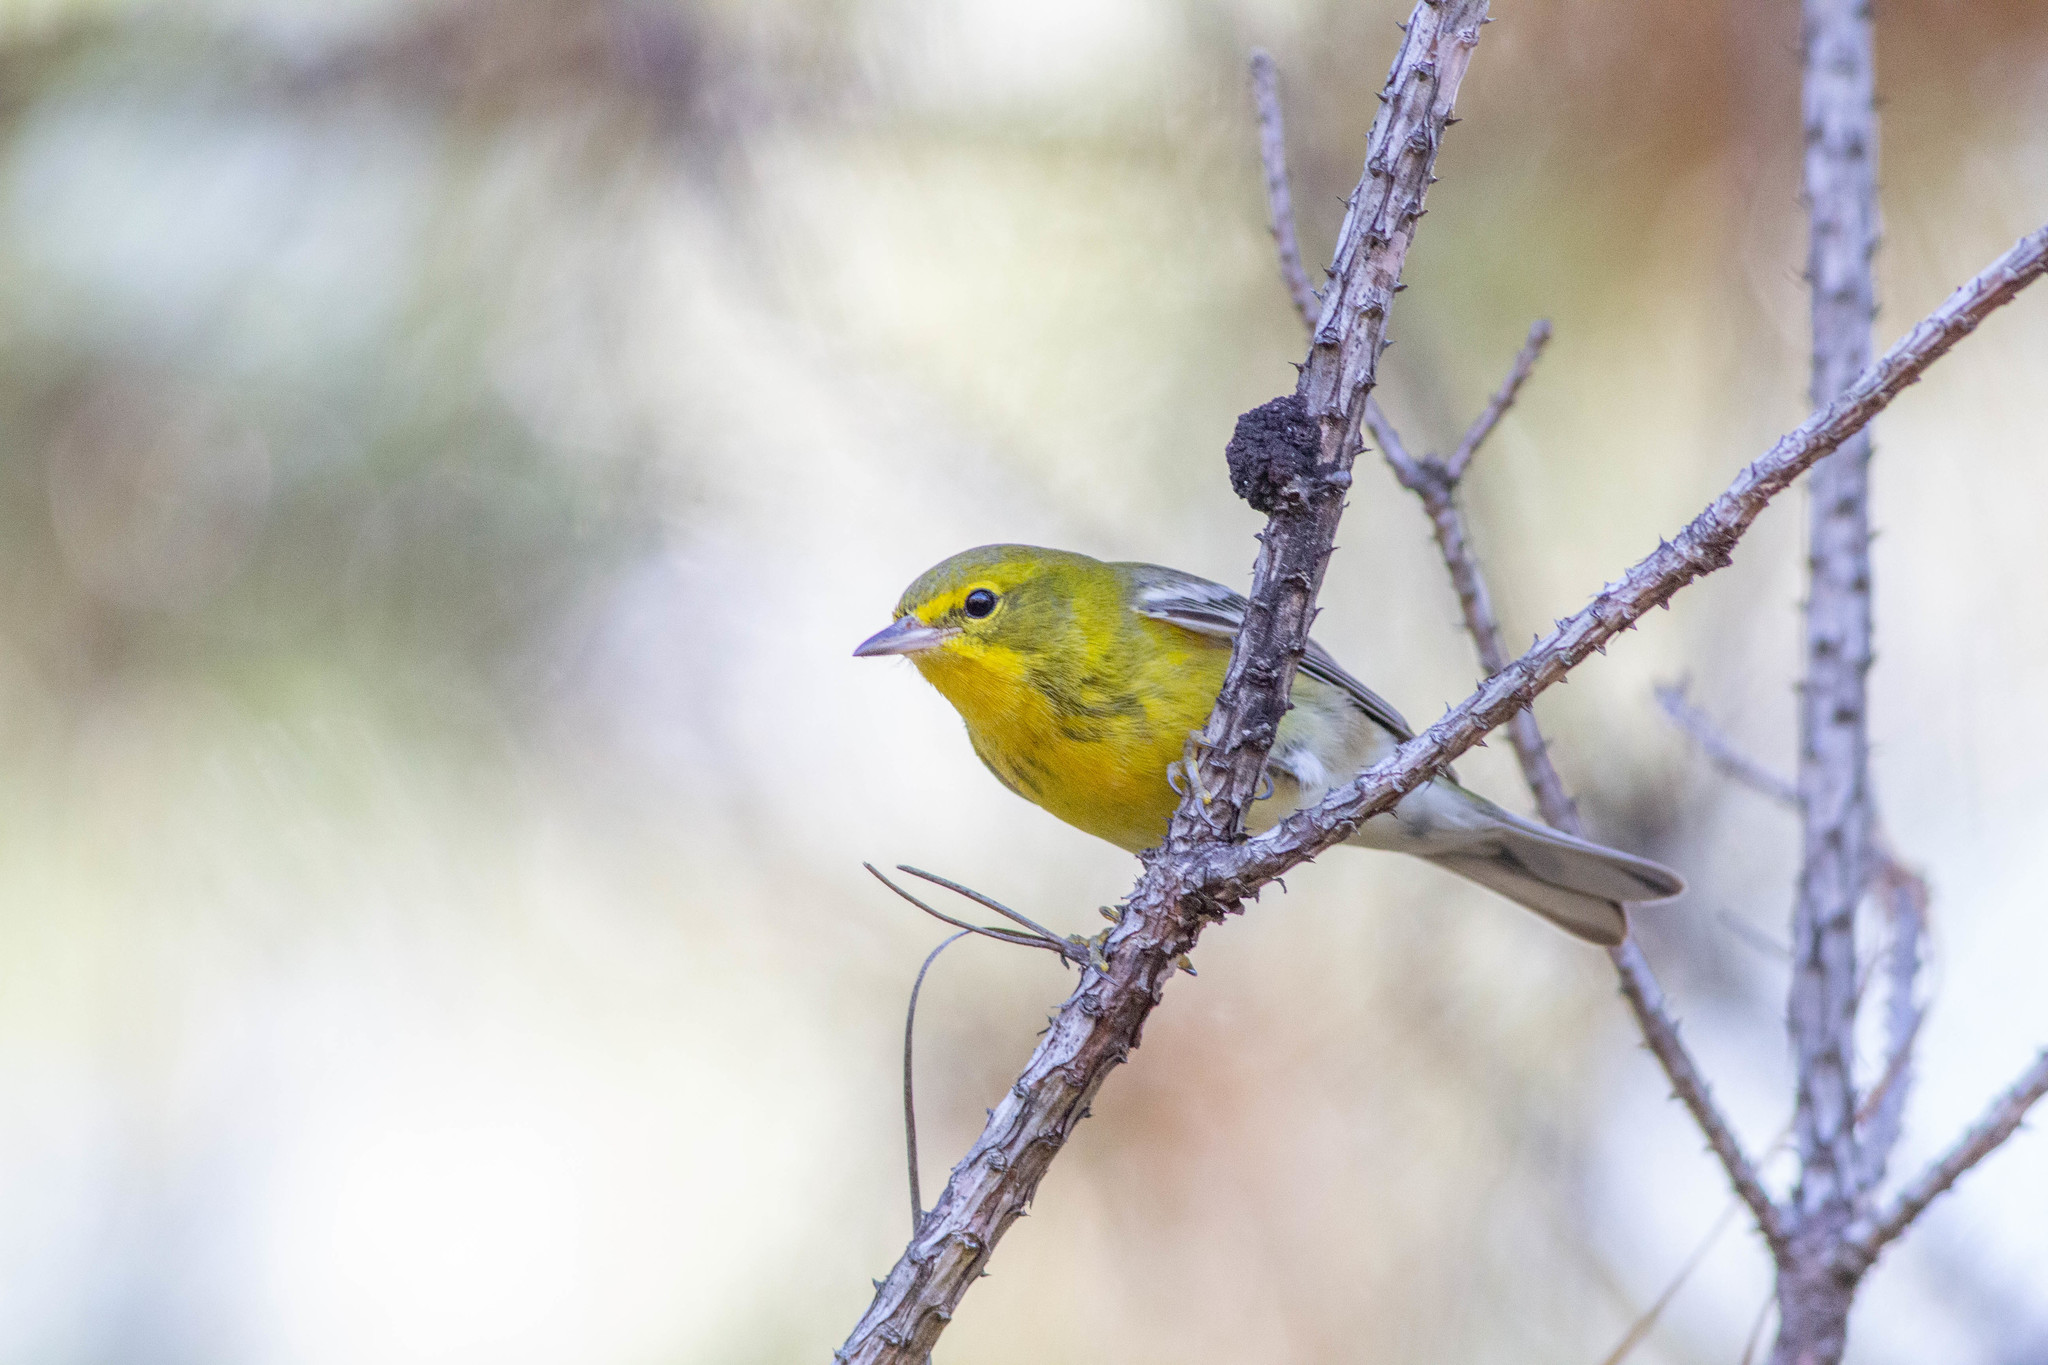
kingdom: Animalia
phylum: Chordata
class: Aves
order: Passeriformes
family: Parulidae
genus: Setophaga
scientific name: Setophaga pinus
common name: Pine warbler
